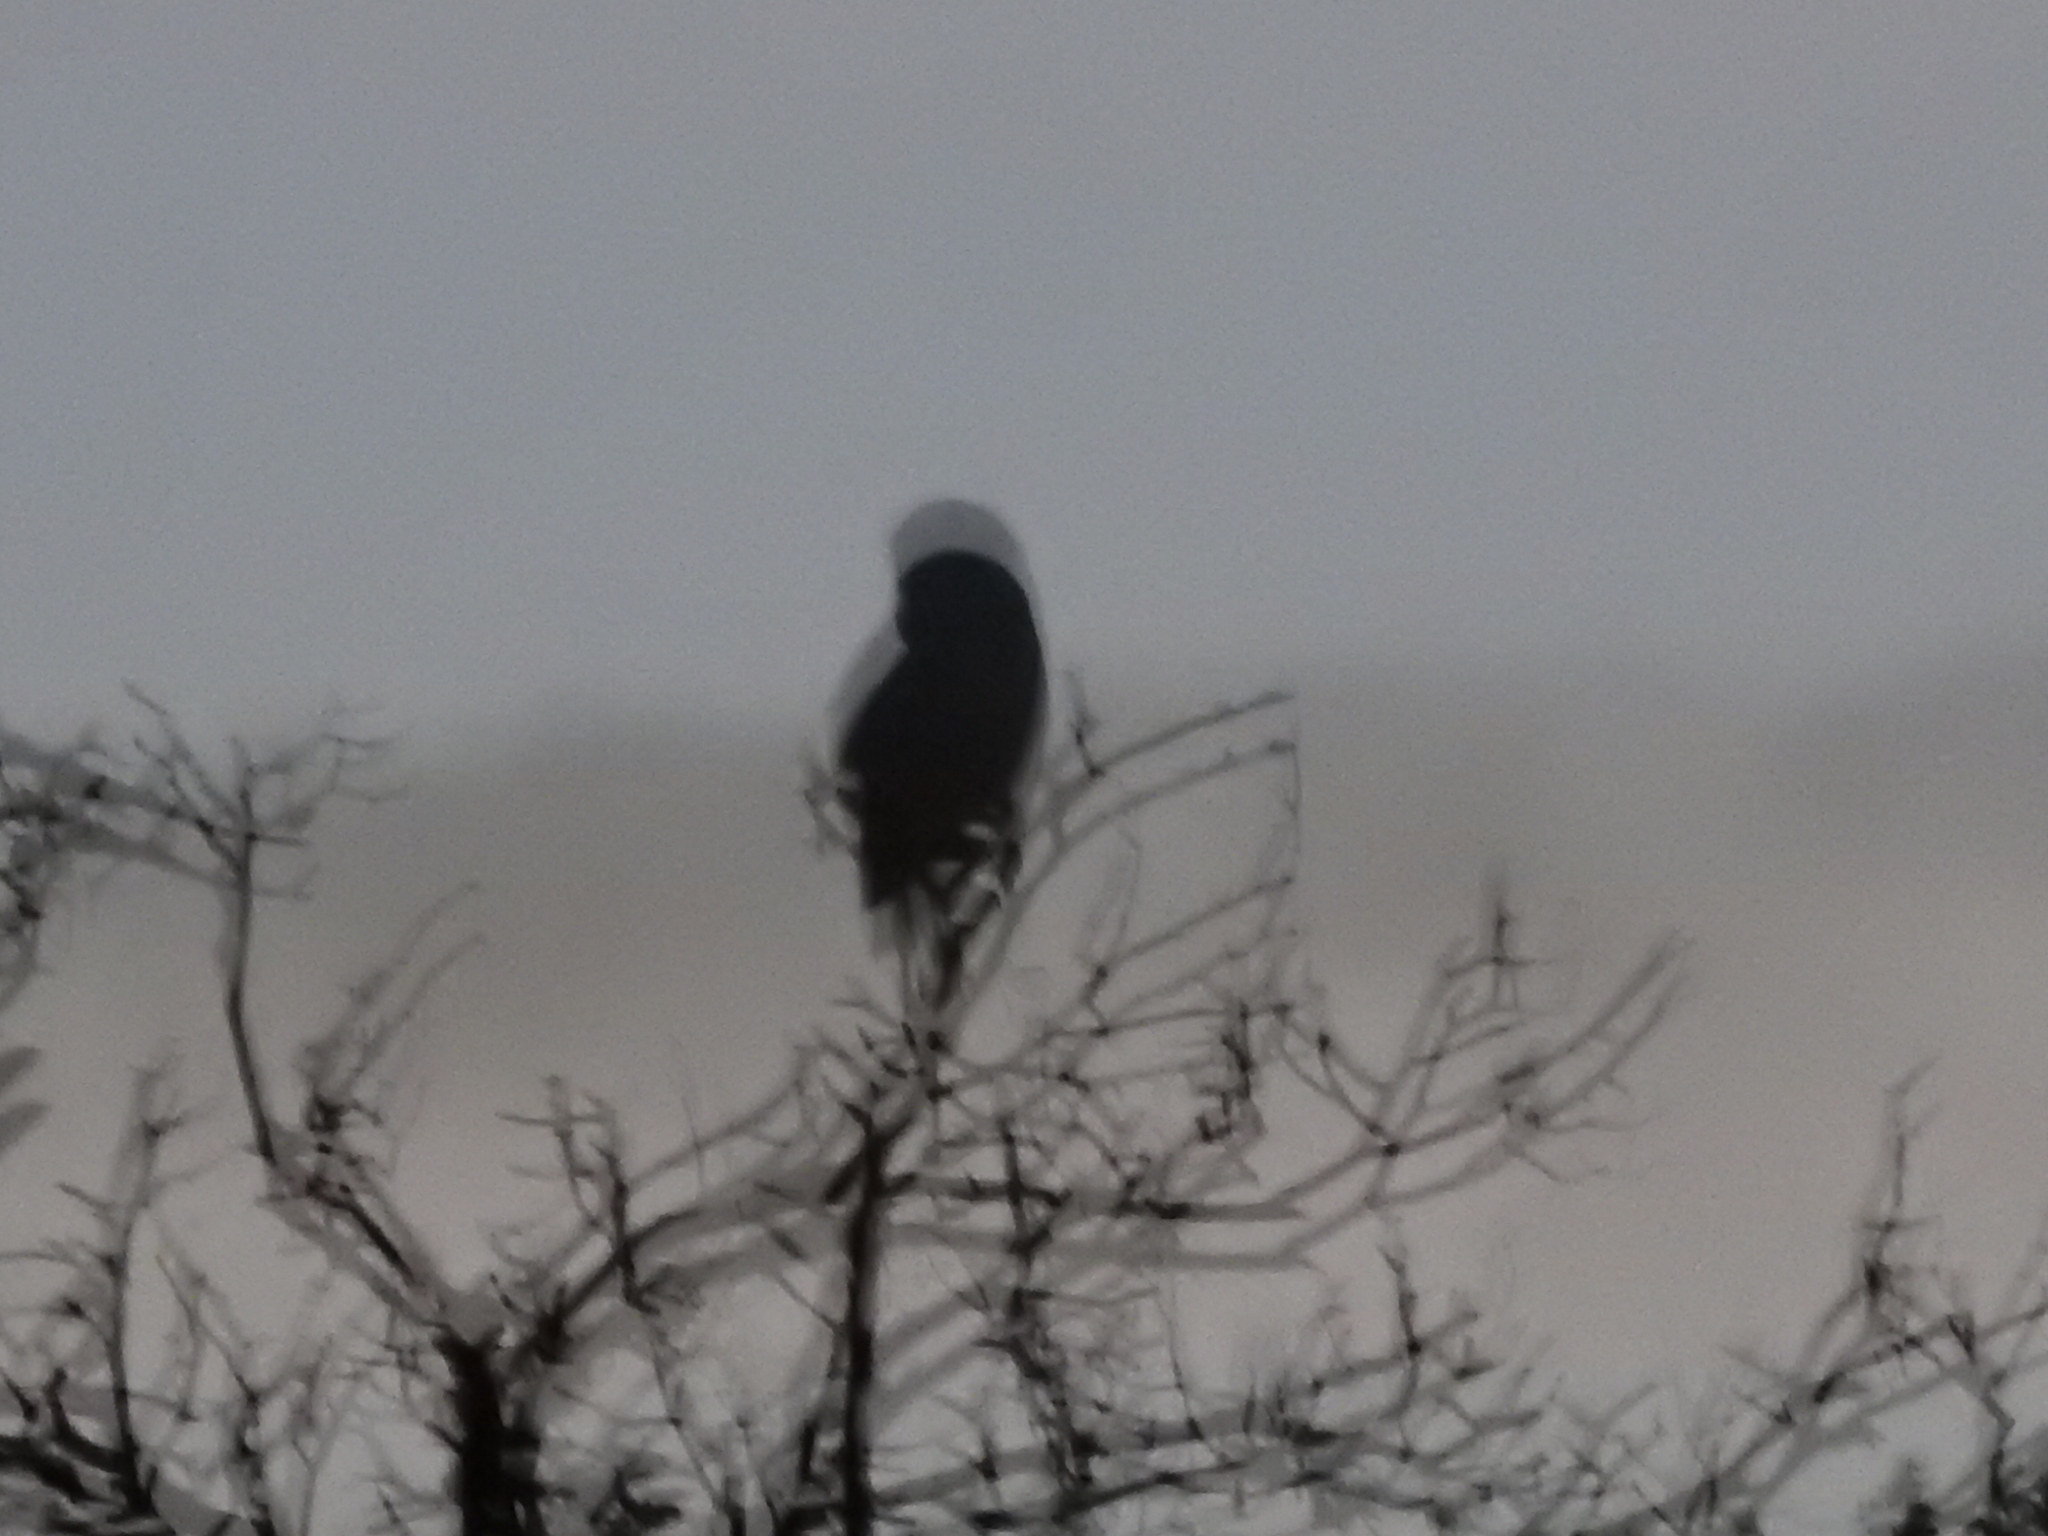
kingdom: Animalia
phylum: Chordata
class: Aves
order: Strigiformes
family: Strigidae
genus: Strix
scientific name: Strix varia
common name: Barred owl
